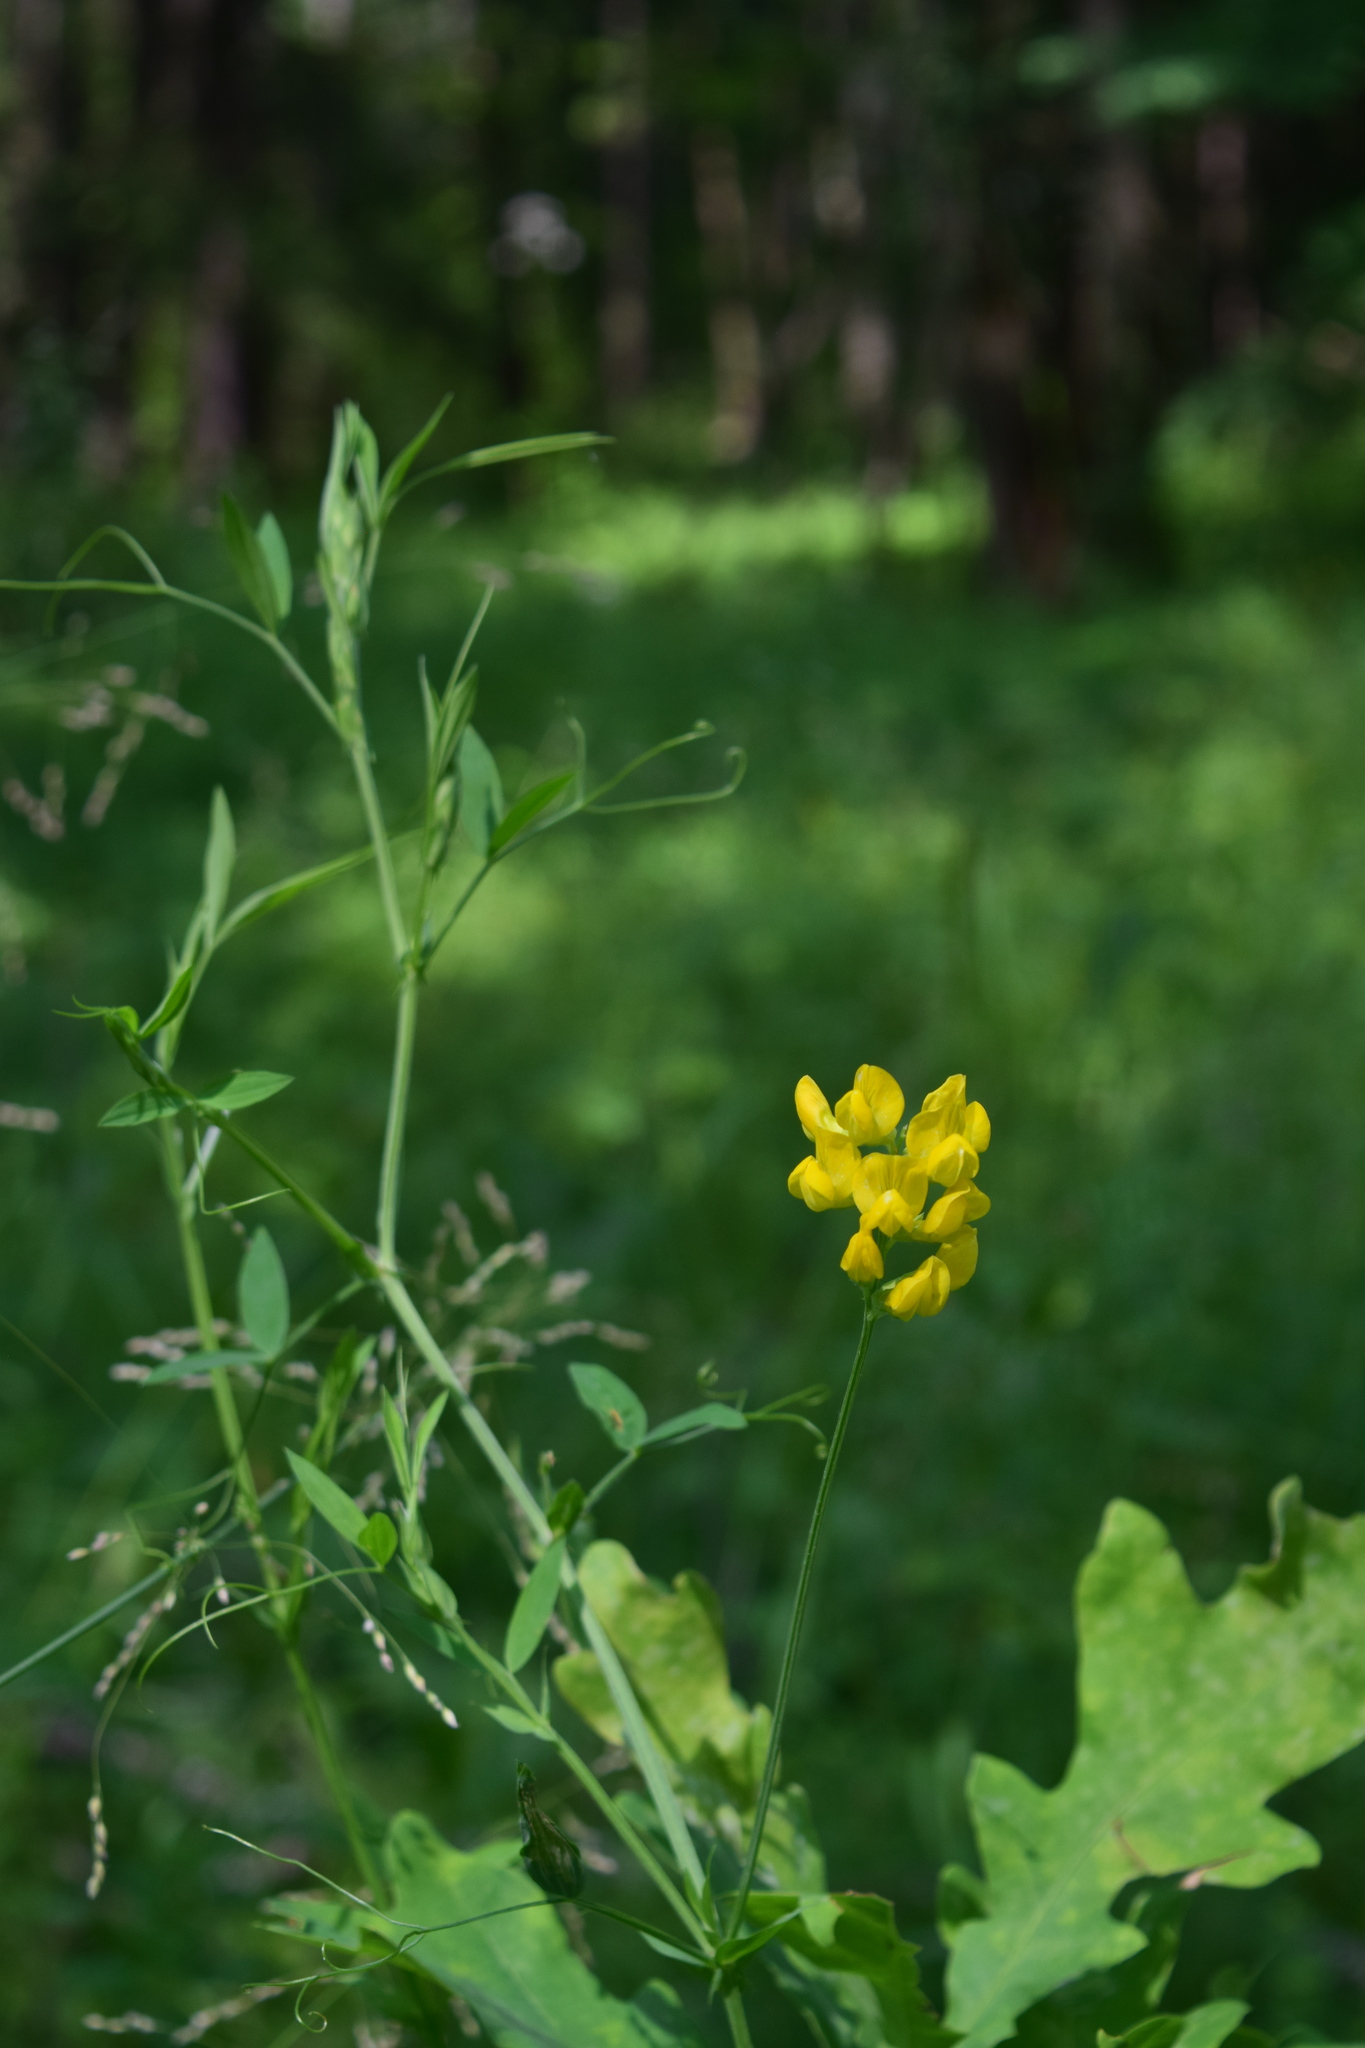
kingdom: Plantae
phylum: Tracheophyta
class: Magnoliopsida
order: Fabales
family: Fabaceae
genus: Lathyrus
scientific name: Lathyrus pratensis
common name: Meadow vetchling
